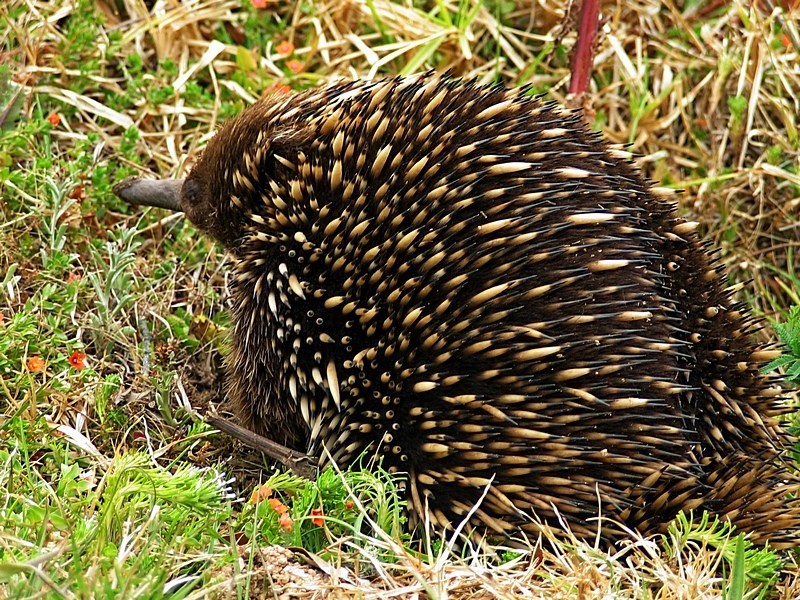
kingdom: Animalia
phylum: Chordata
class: Mammalia
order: Monotremata
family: Tachyglossidae
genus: Tachyglossus
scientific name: Tachyglossus aculeatus
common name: Short-beaked echidna
